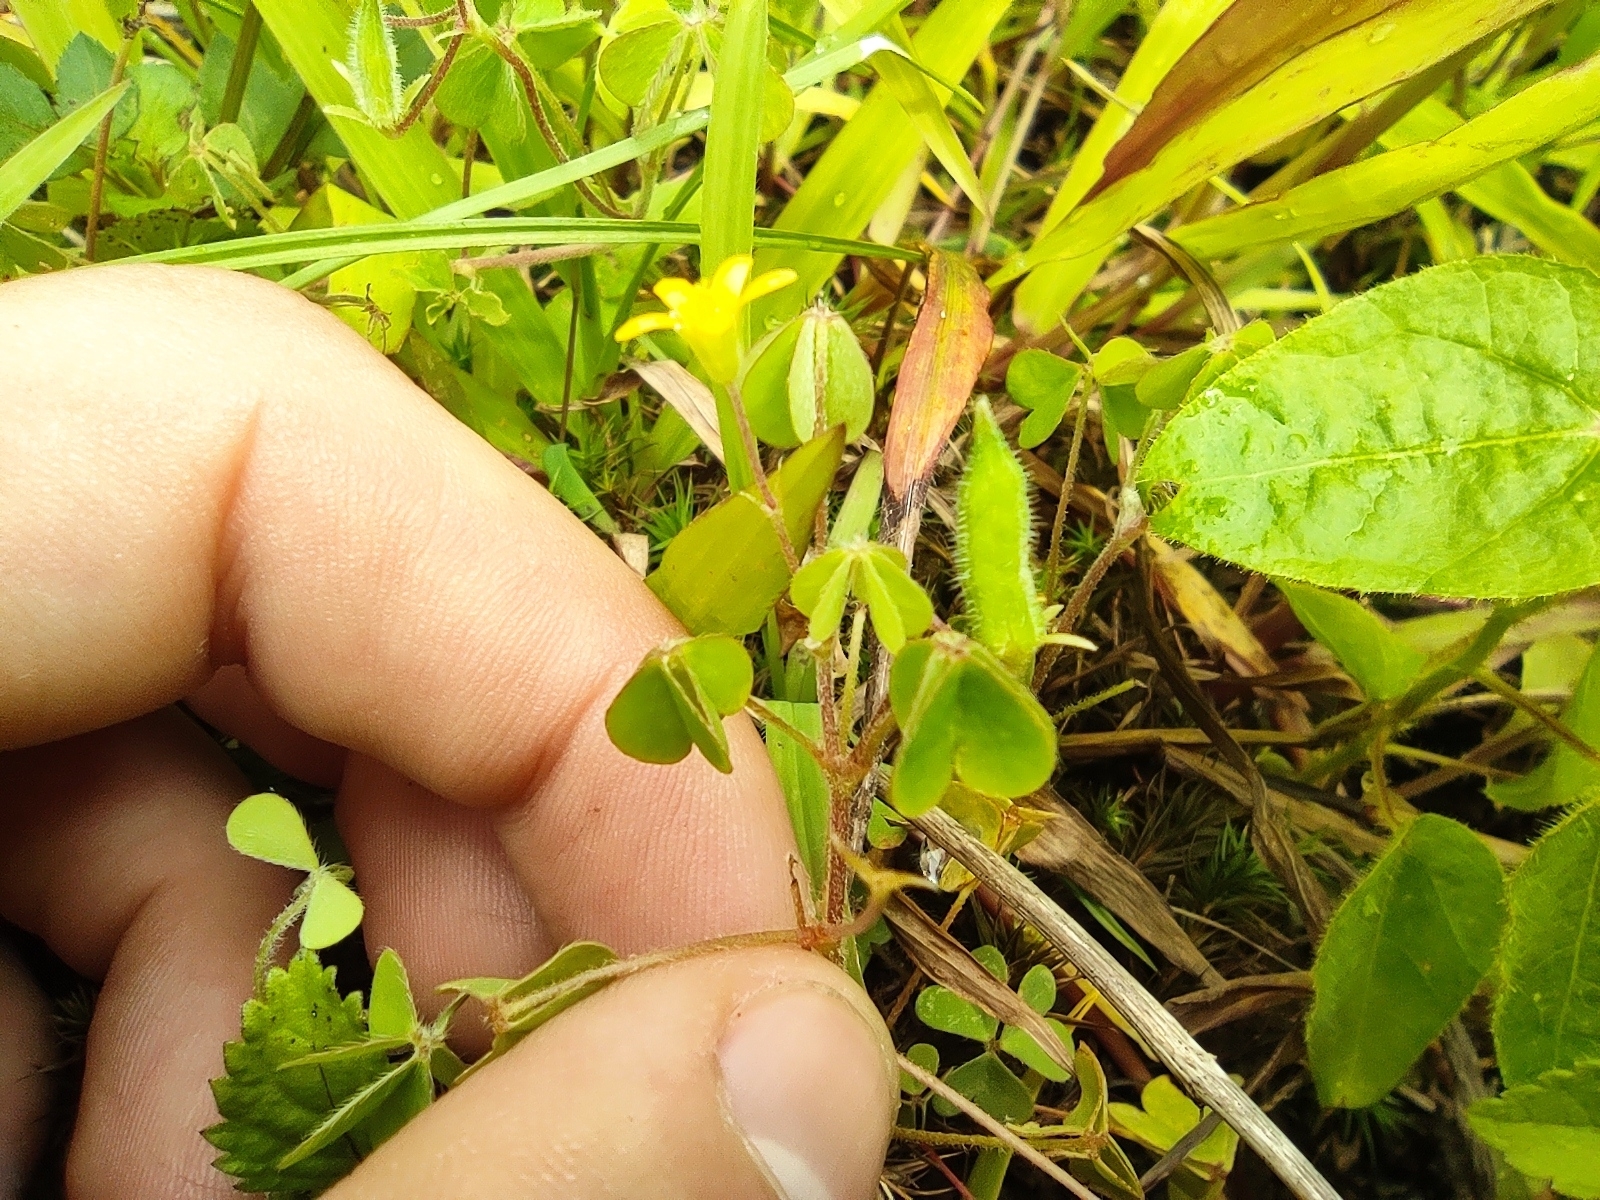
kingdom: Plantae
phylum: Tracheophyta
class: Magnoliopsida
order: Oxalidales
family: Oxalidaceae
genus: Oxalis
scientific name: Oxalis corniculata
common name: Procumbent yellow-sorrel
